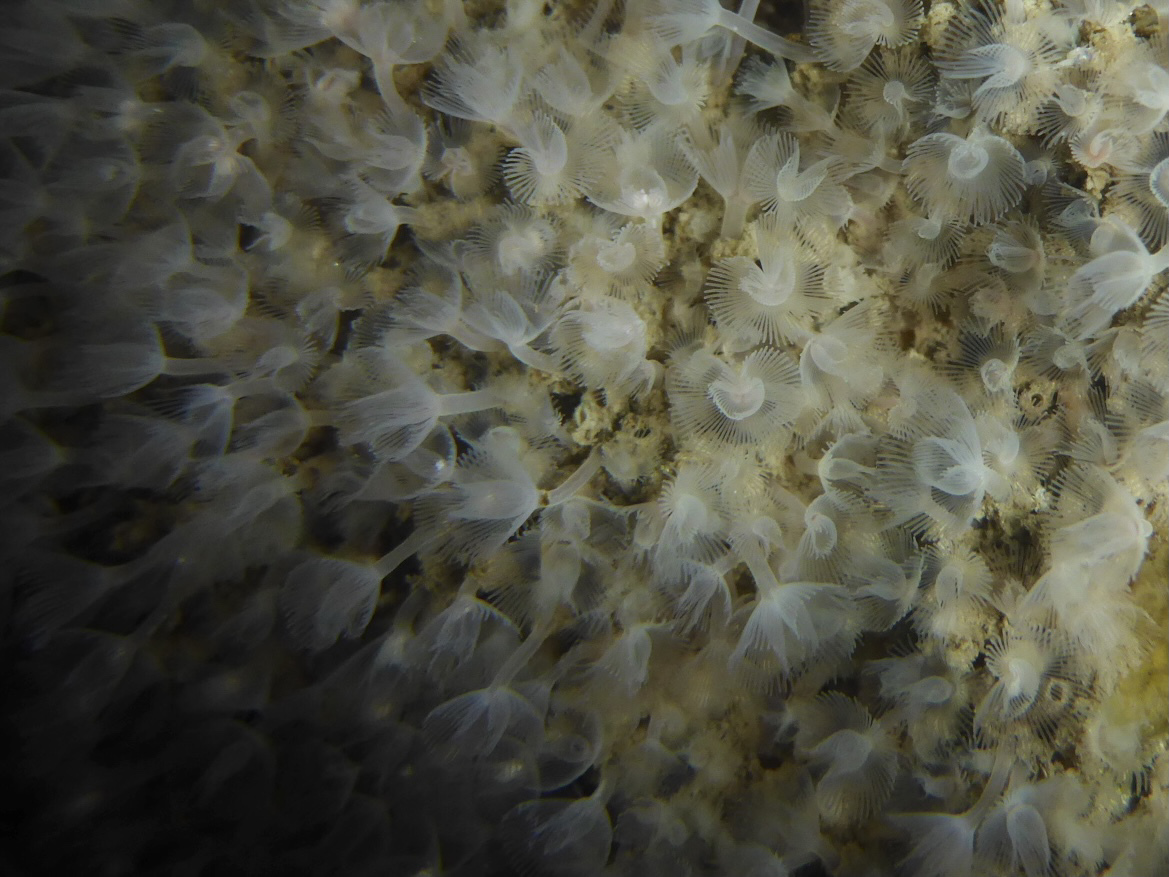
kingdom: Animalia
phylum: Phoronida
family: Phoronidae
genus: Phoronopsis
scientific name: Phoronopsis harmeri
